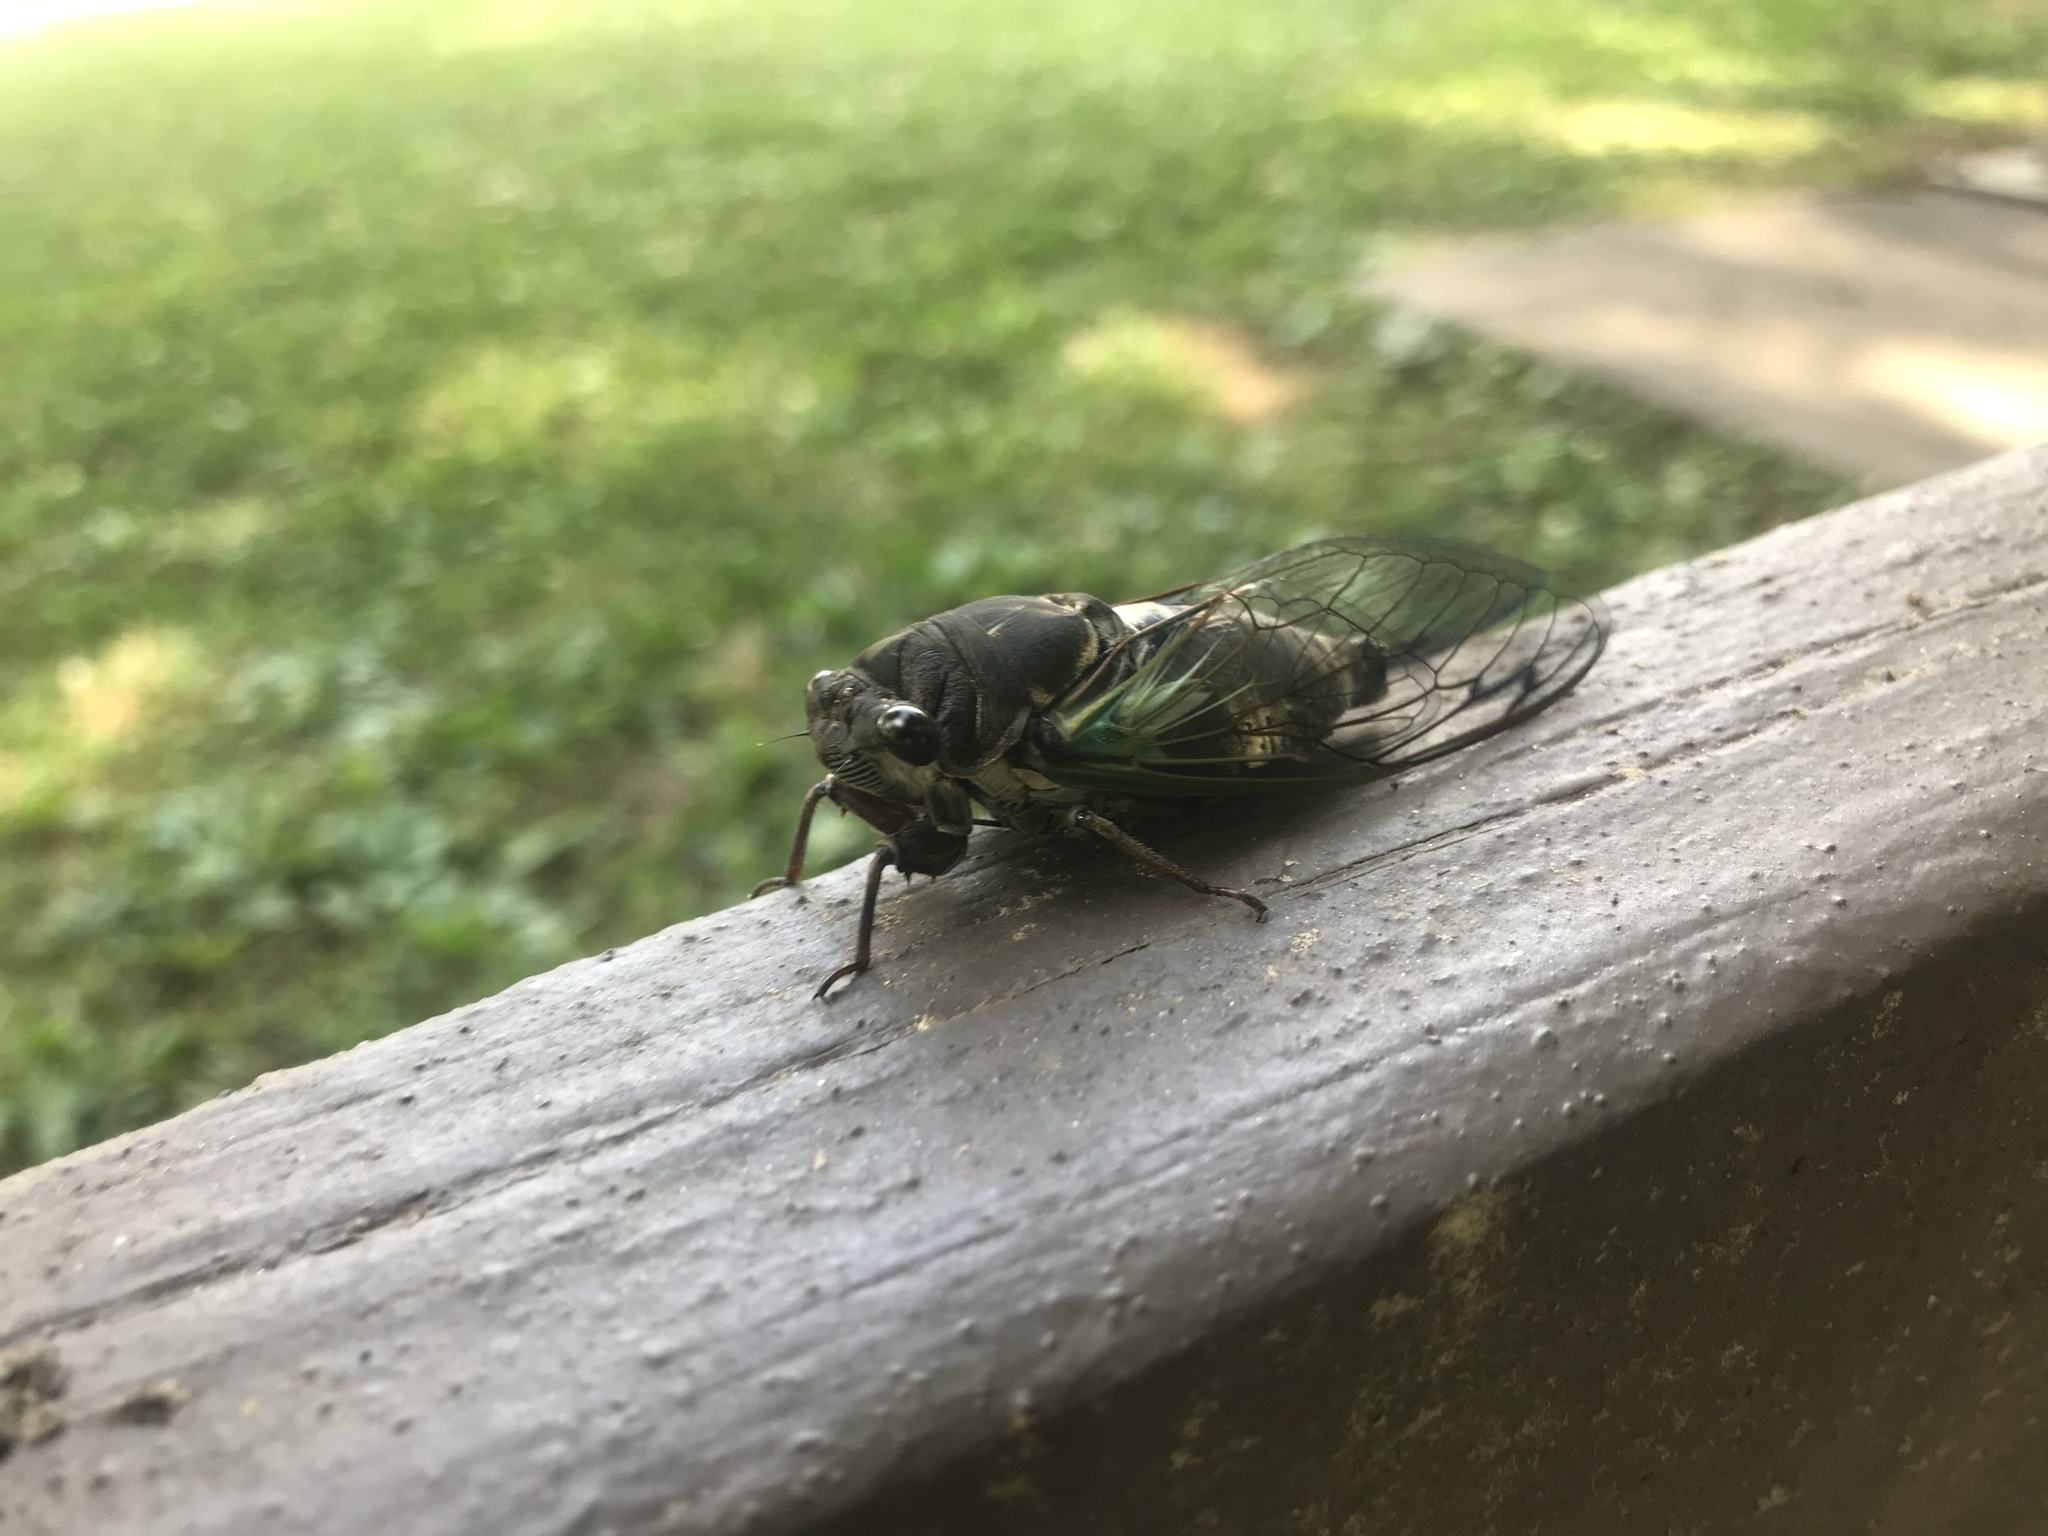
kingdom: Animalia
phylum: Arthropoda
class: Insecta
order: Hemiptera
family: Cicadidae
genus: Neotibicen
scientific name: Neotibicen lyricen
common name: Lyric cicada
